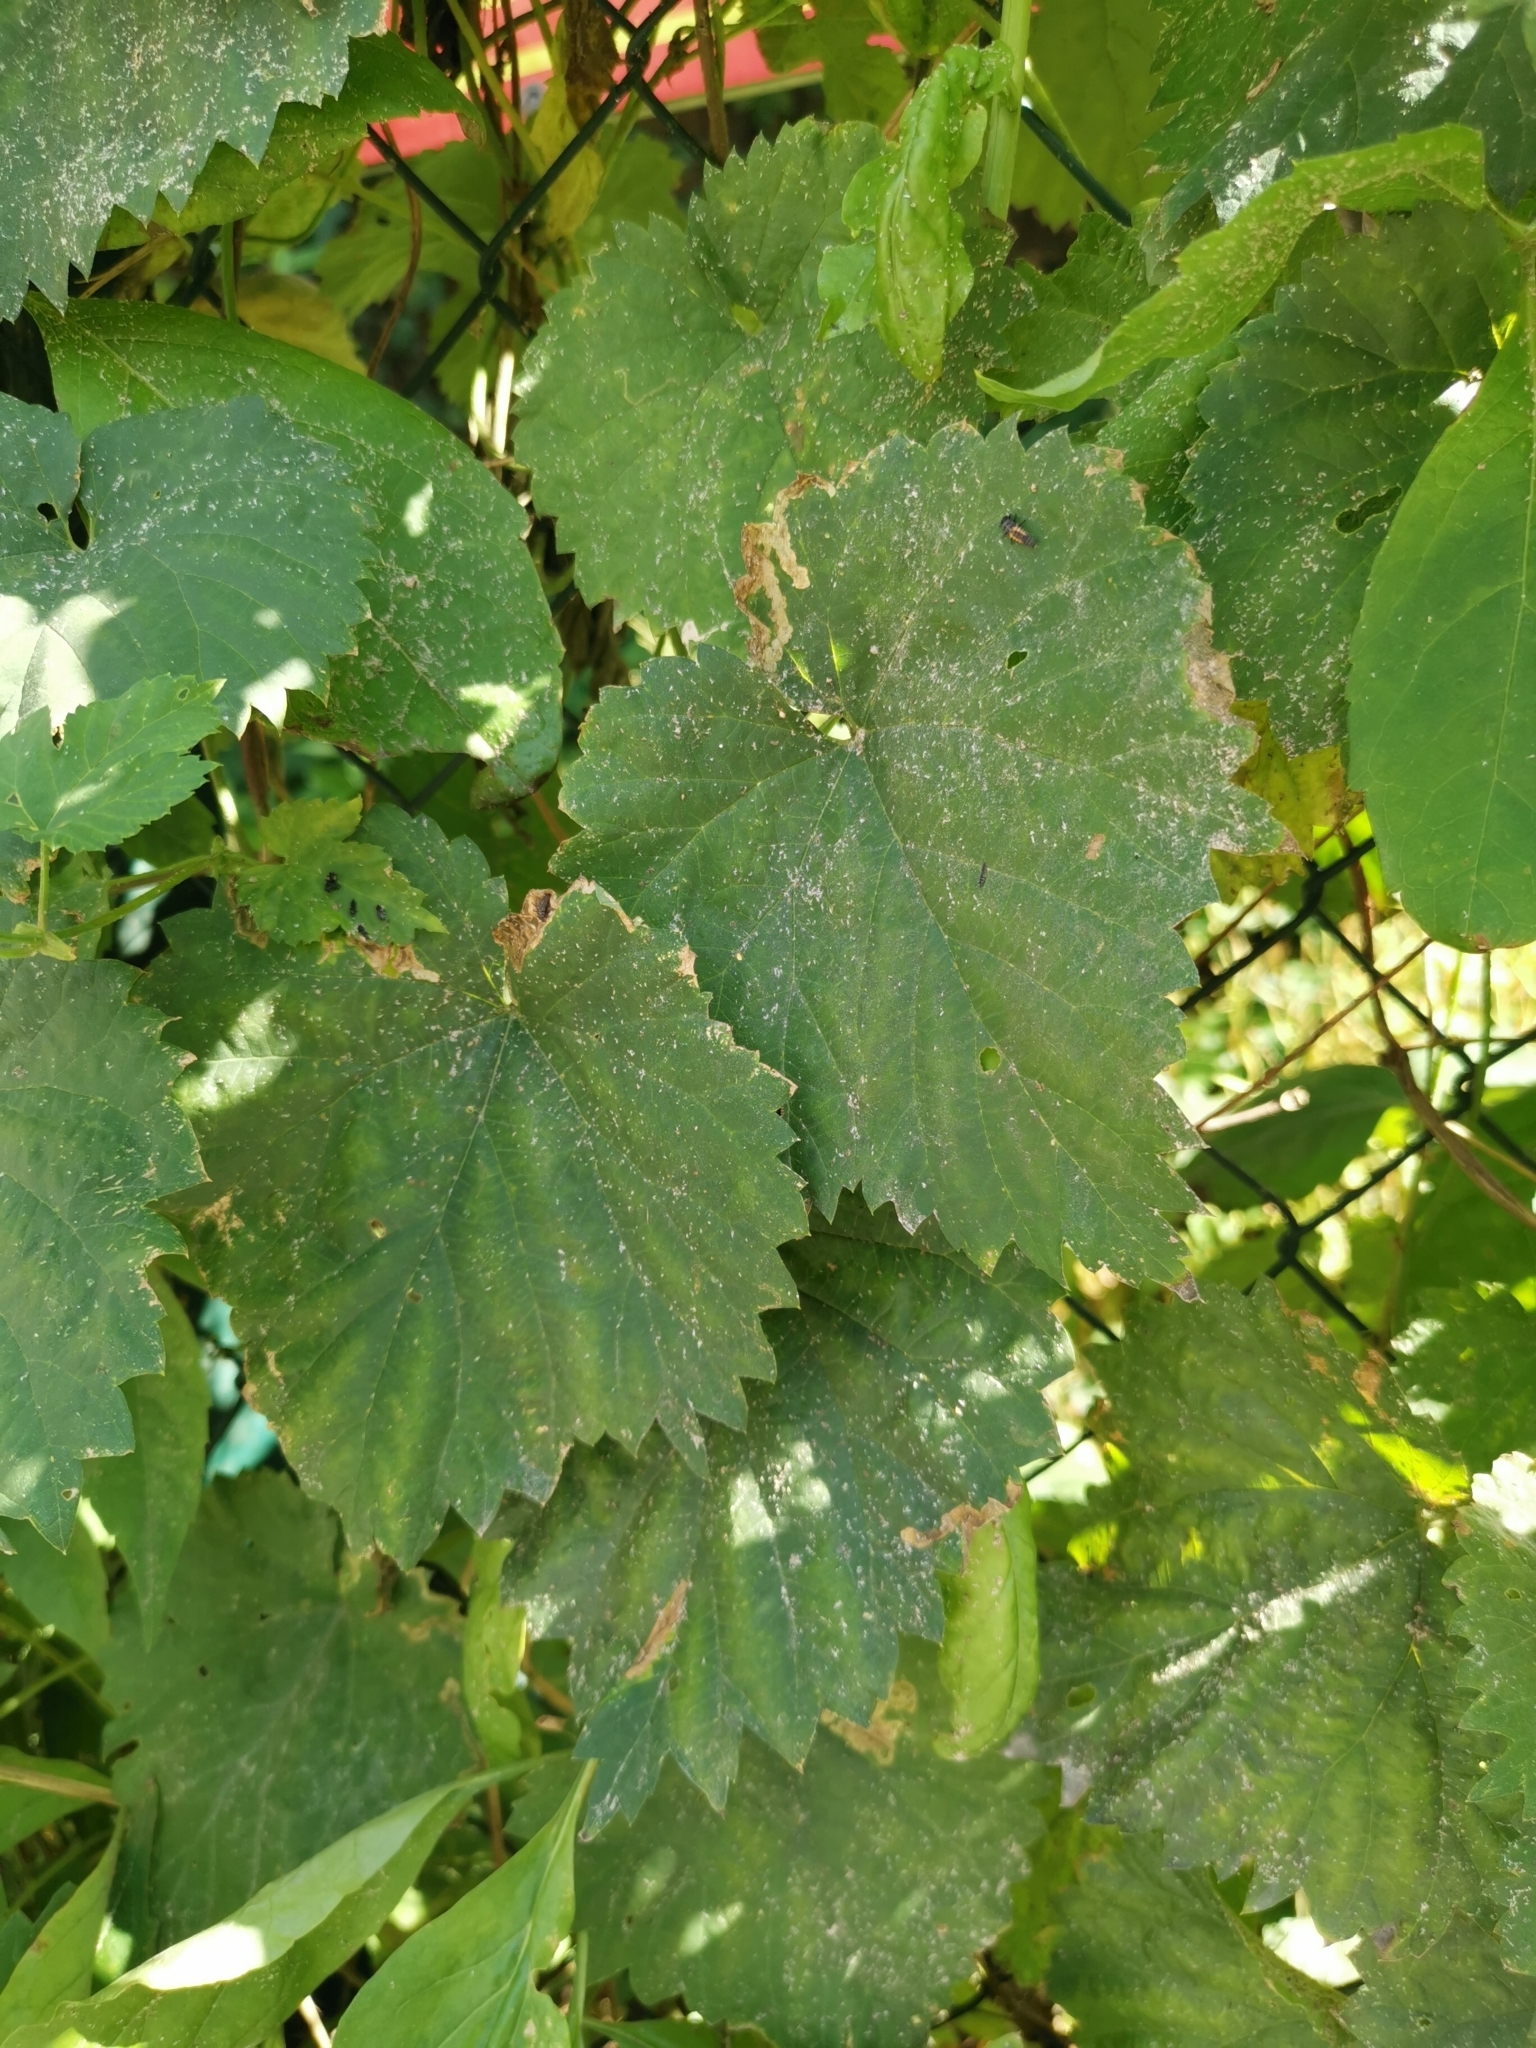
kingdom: Plantae
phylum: Tracheophyta
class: Magnoliopsida
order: Rosales
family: Cannabaceae
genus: Humulus
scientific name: Humulus lupulus
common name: Hop
